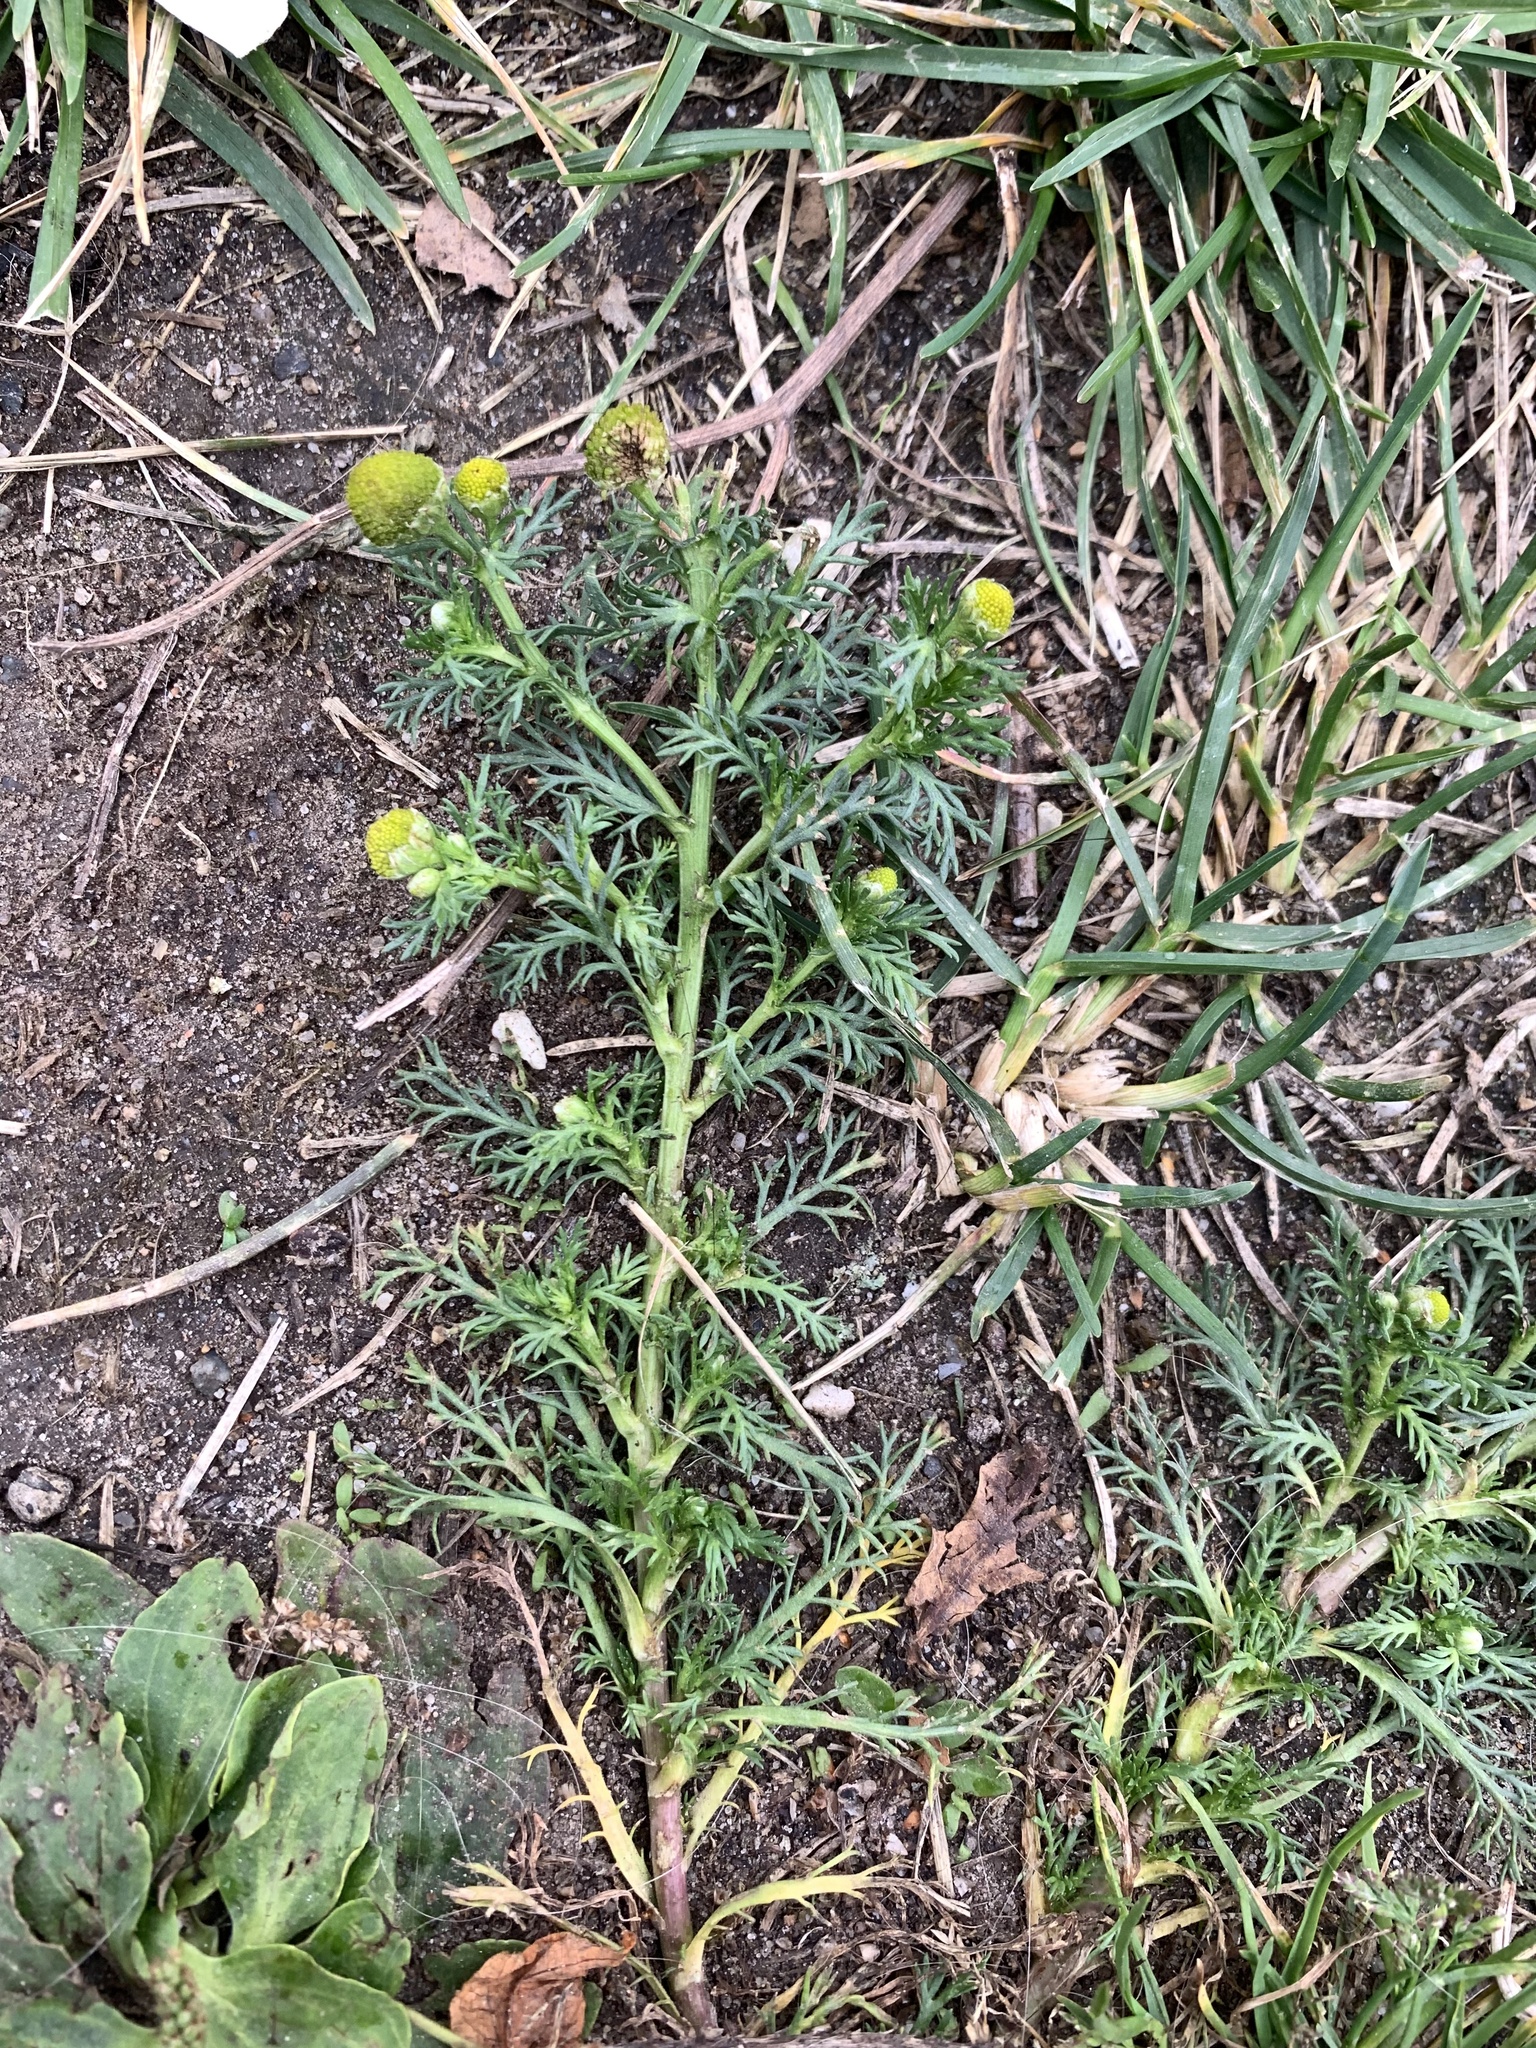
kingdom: Plantae
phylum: Tracheophyta
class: Magnoliopsida
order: Asterales
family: Asteraceae
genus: Matricaria
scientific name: Matricaria discoidea
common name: Disc mayweed
